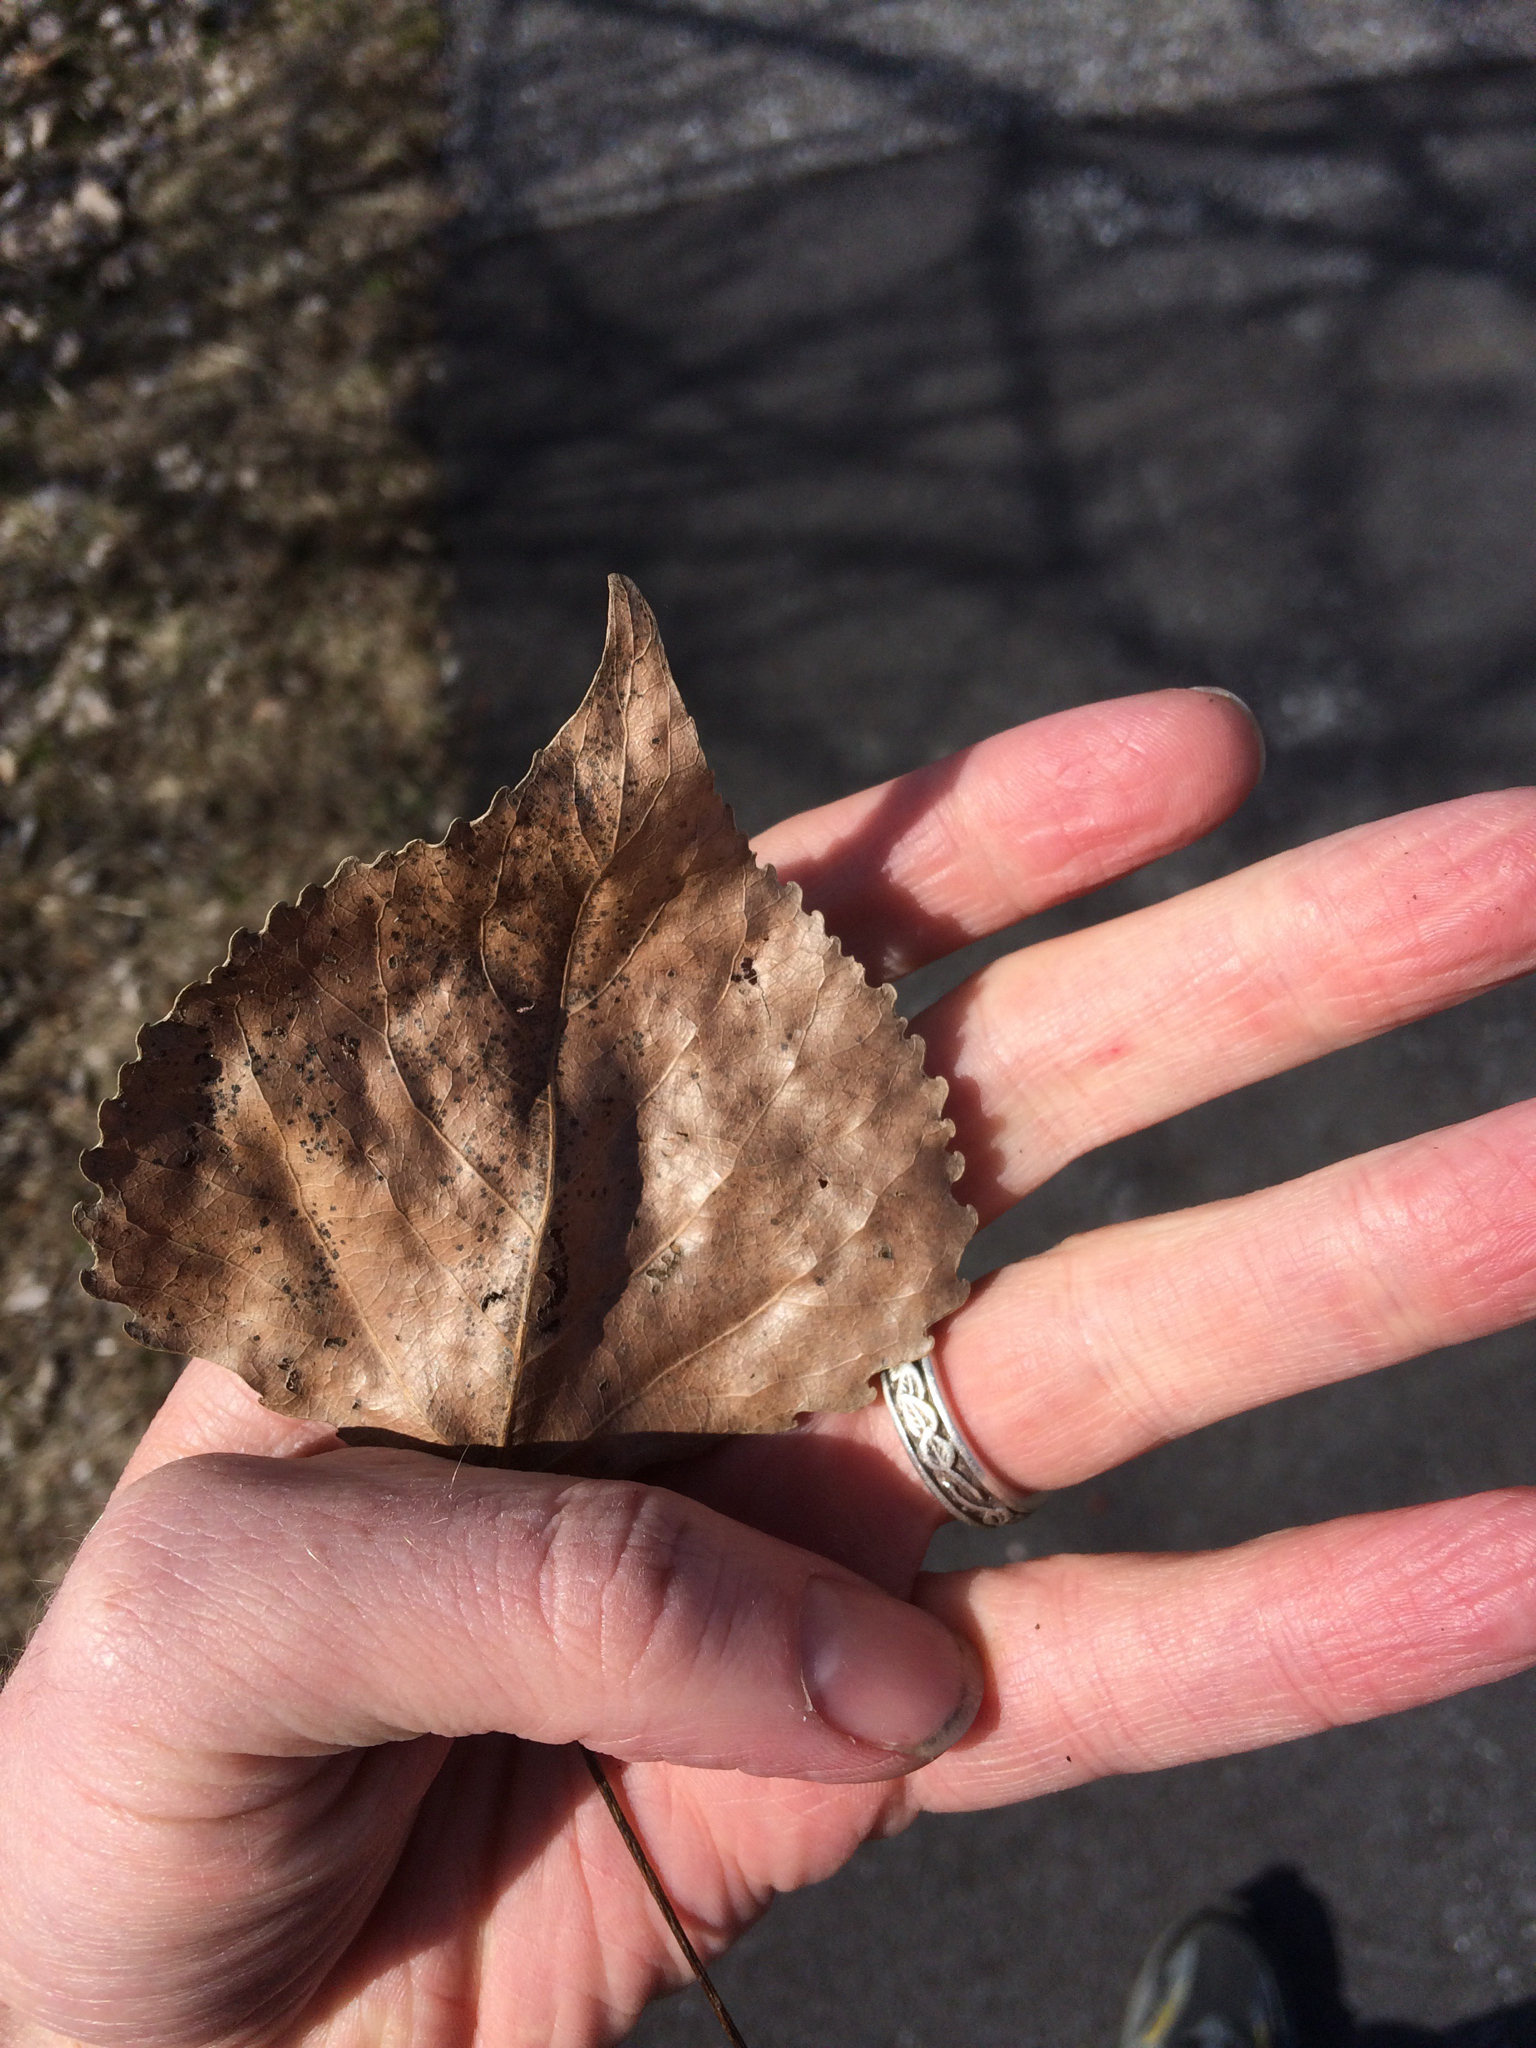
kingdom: Plantae
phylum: Tracheophyta
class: Magnoliopsida
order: Malpighiales
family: Salicaceae
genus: Populus
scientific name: Populus deltoides
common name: Eastern cottonwood
